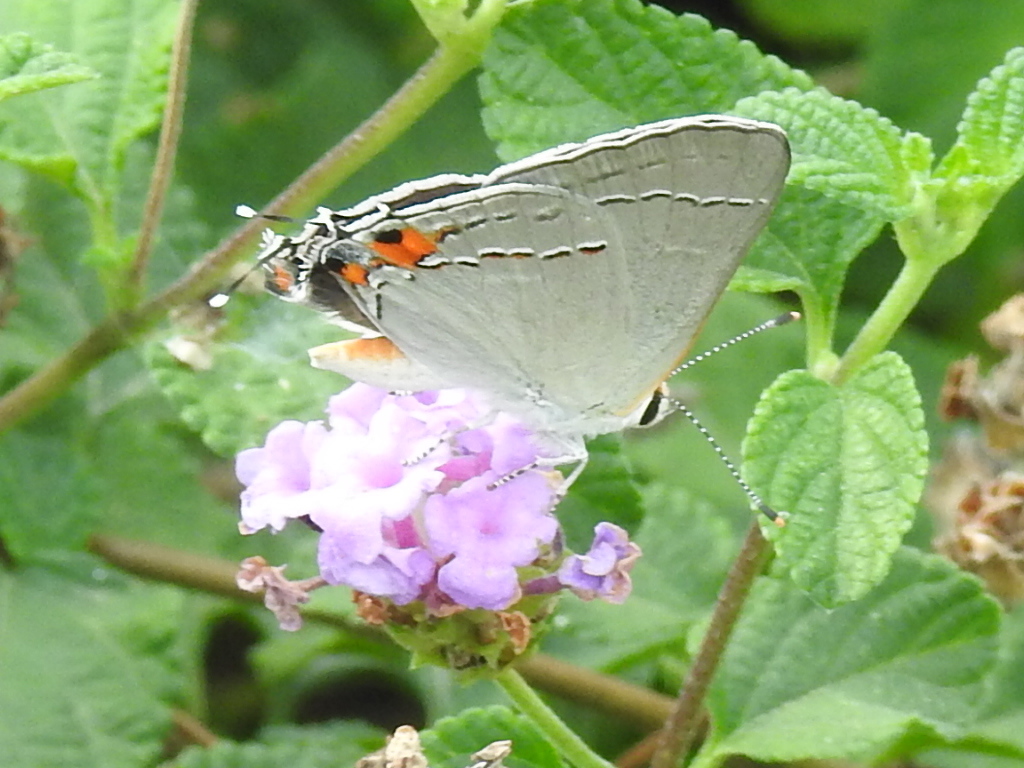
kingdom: Animalia
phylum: Arthropoda
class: Insecta
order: Lepidoptera
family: Lycaenidae
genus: Strymon
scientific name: Strymon melinus
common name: Gray hairstreak
